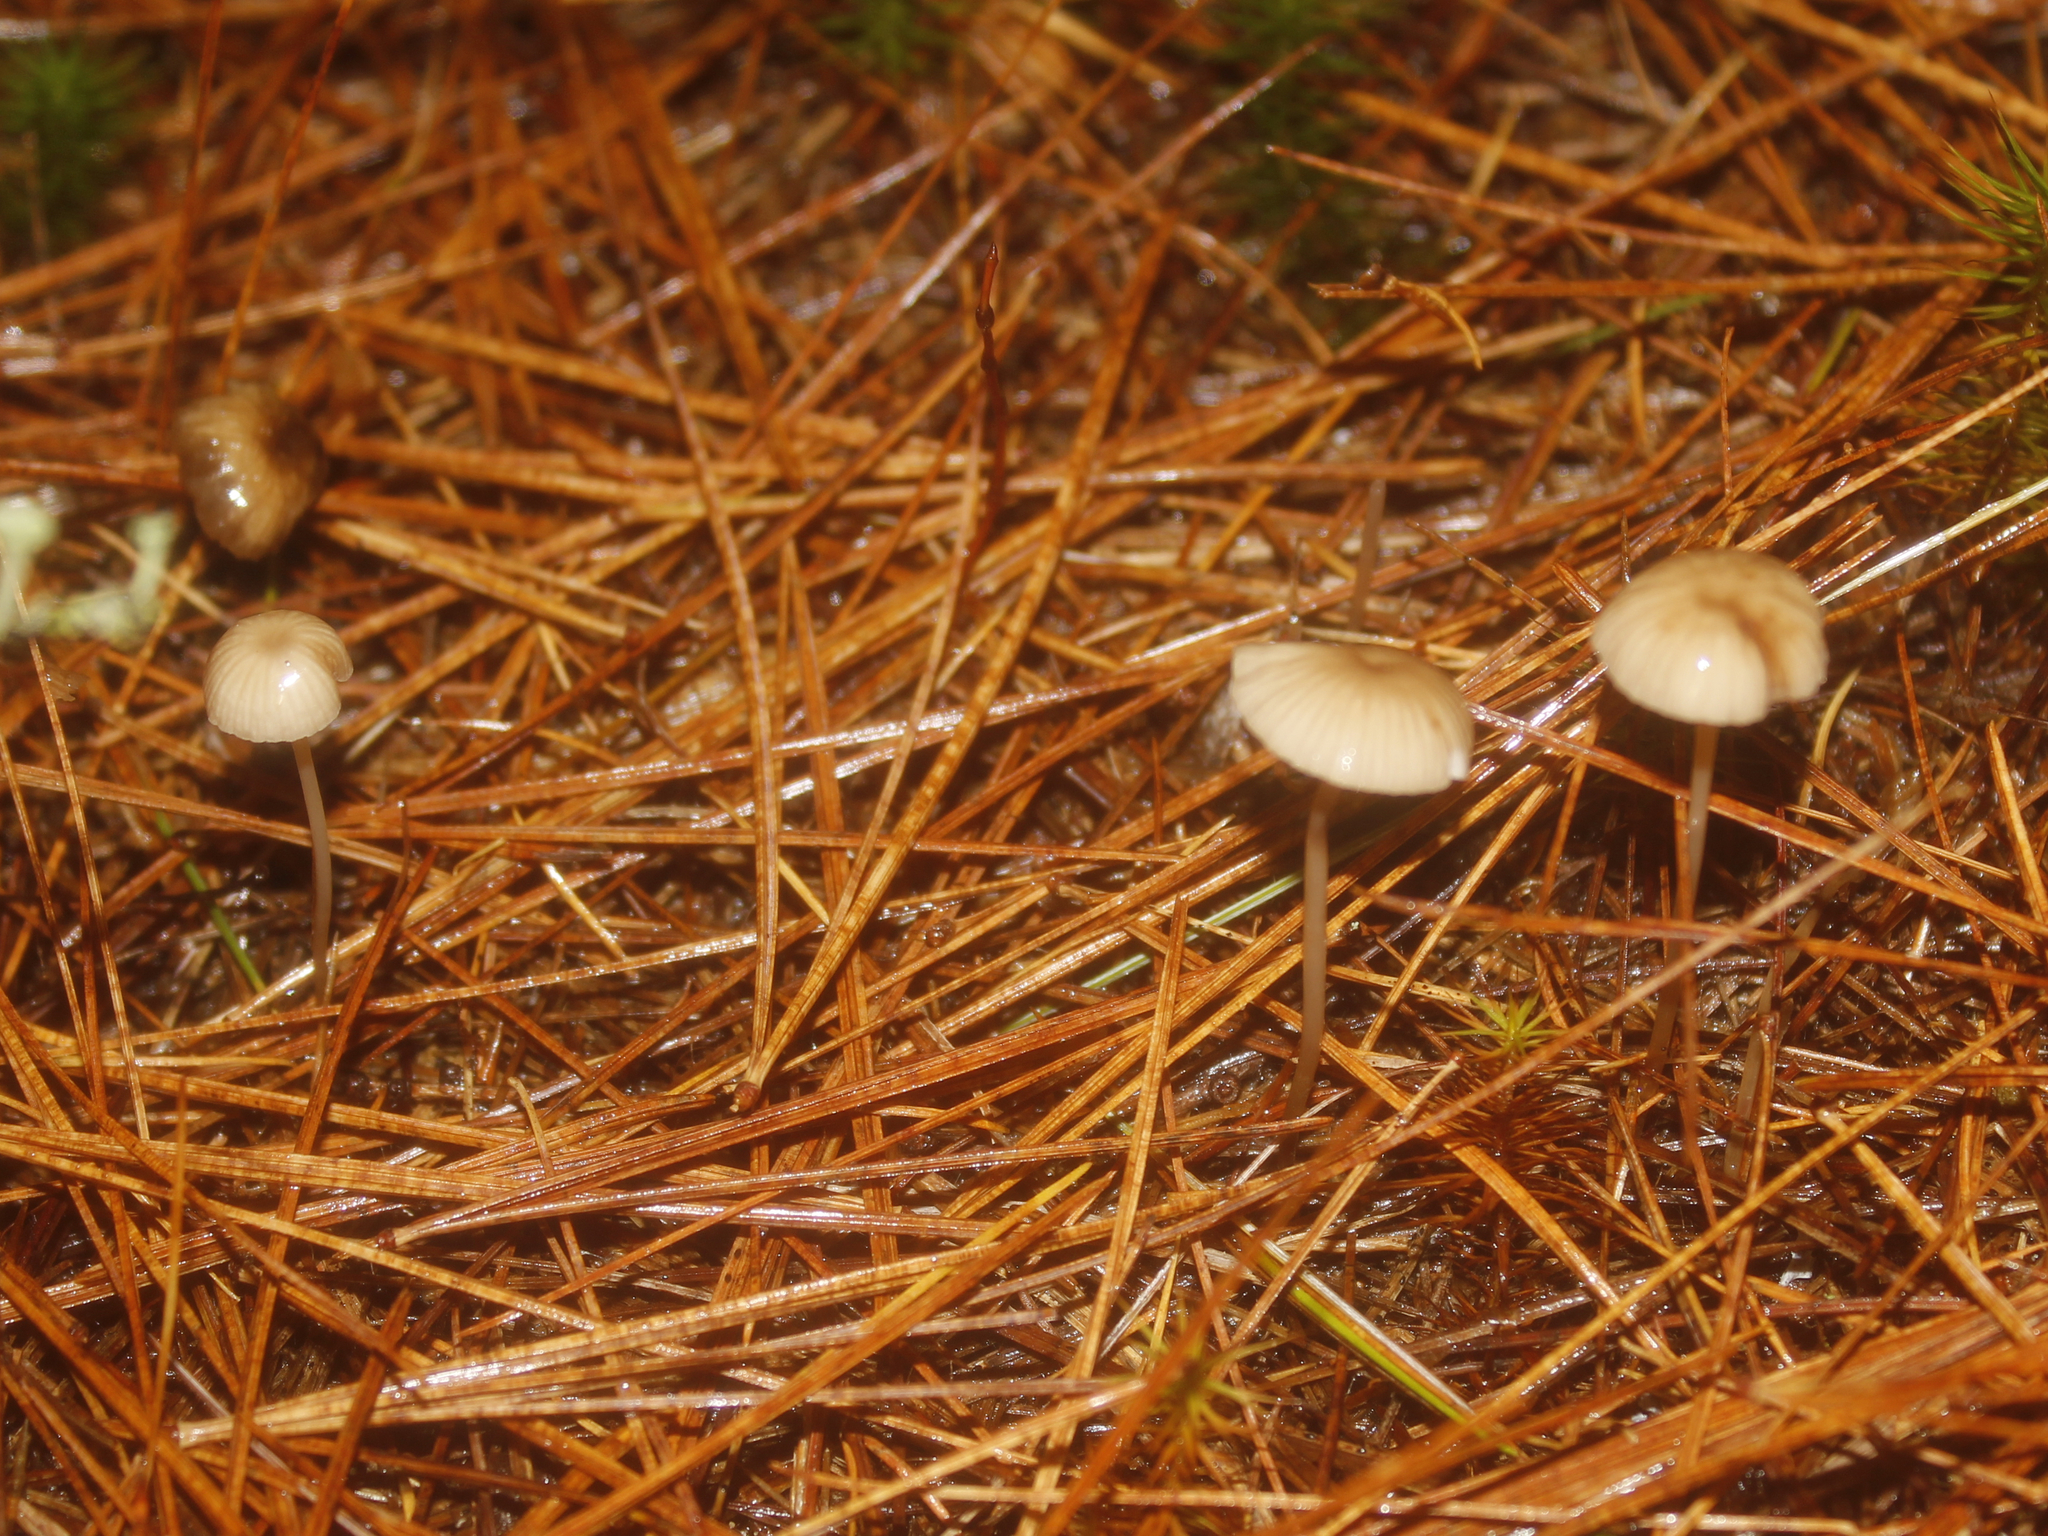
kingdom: Fungi
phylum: Basidiomycota
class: Agaricomycetes
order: Agaricales
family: Mycenaceae
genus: Mycena
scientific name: Mycena rosella
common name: Pink bonnet
